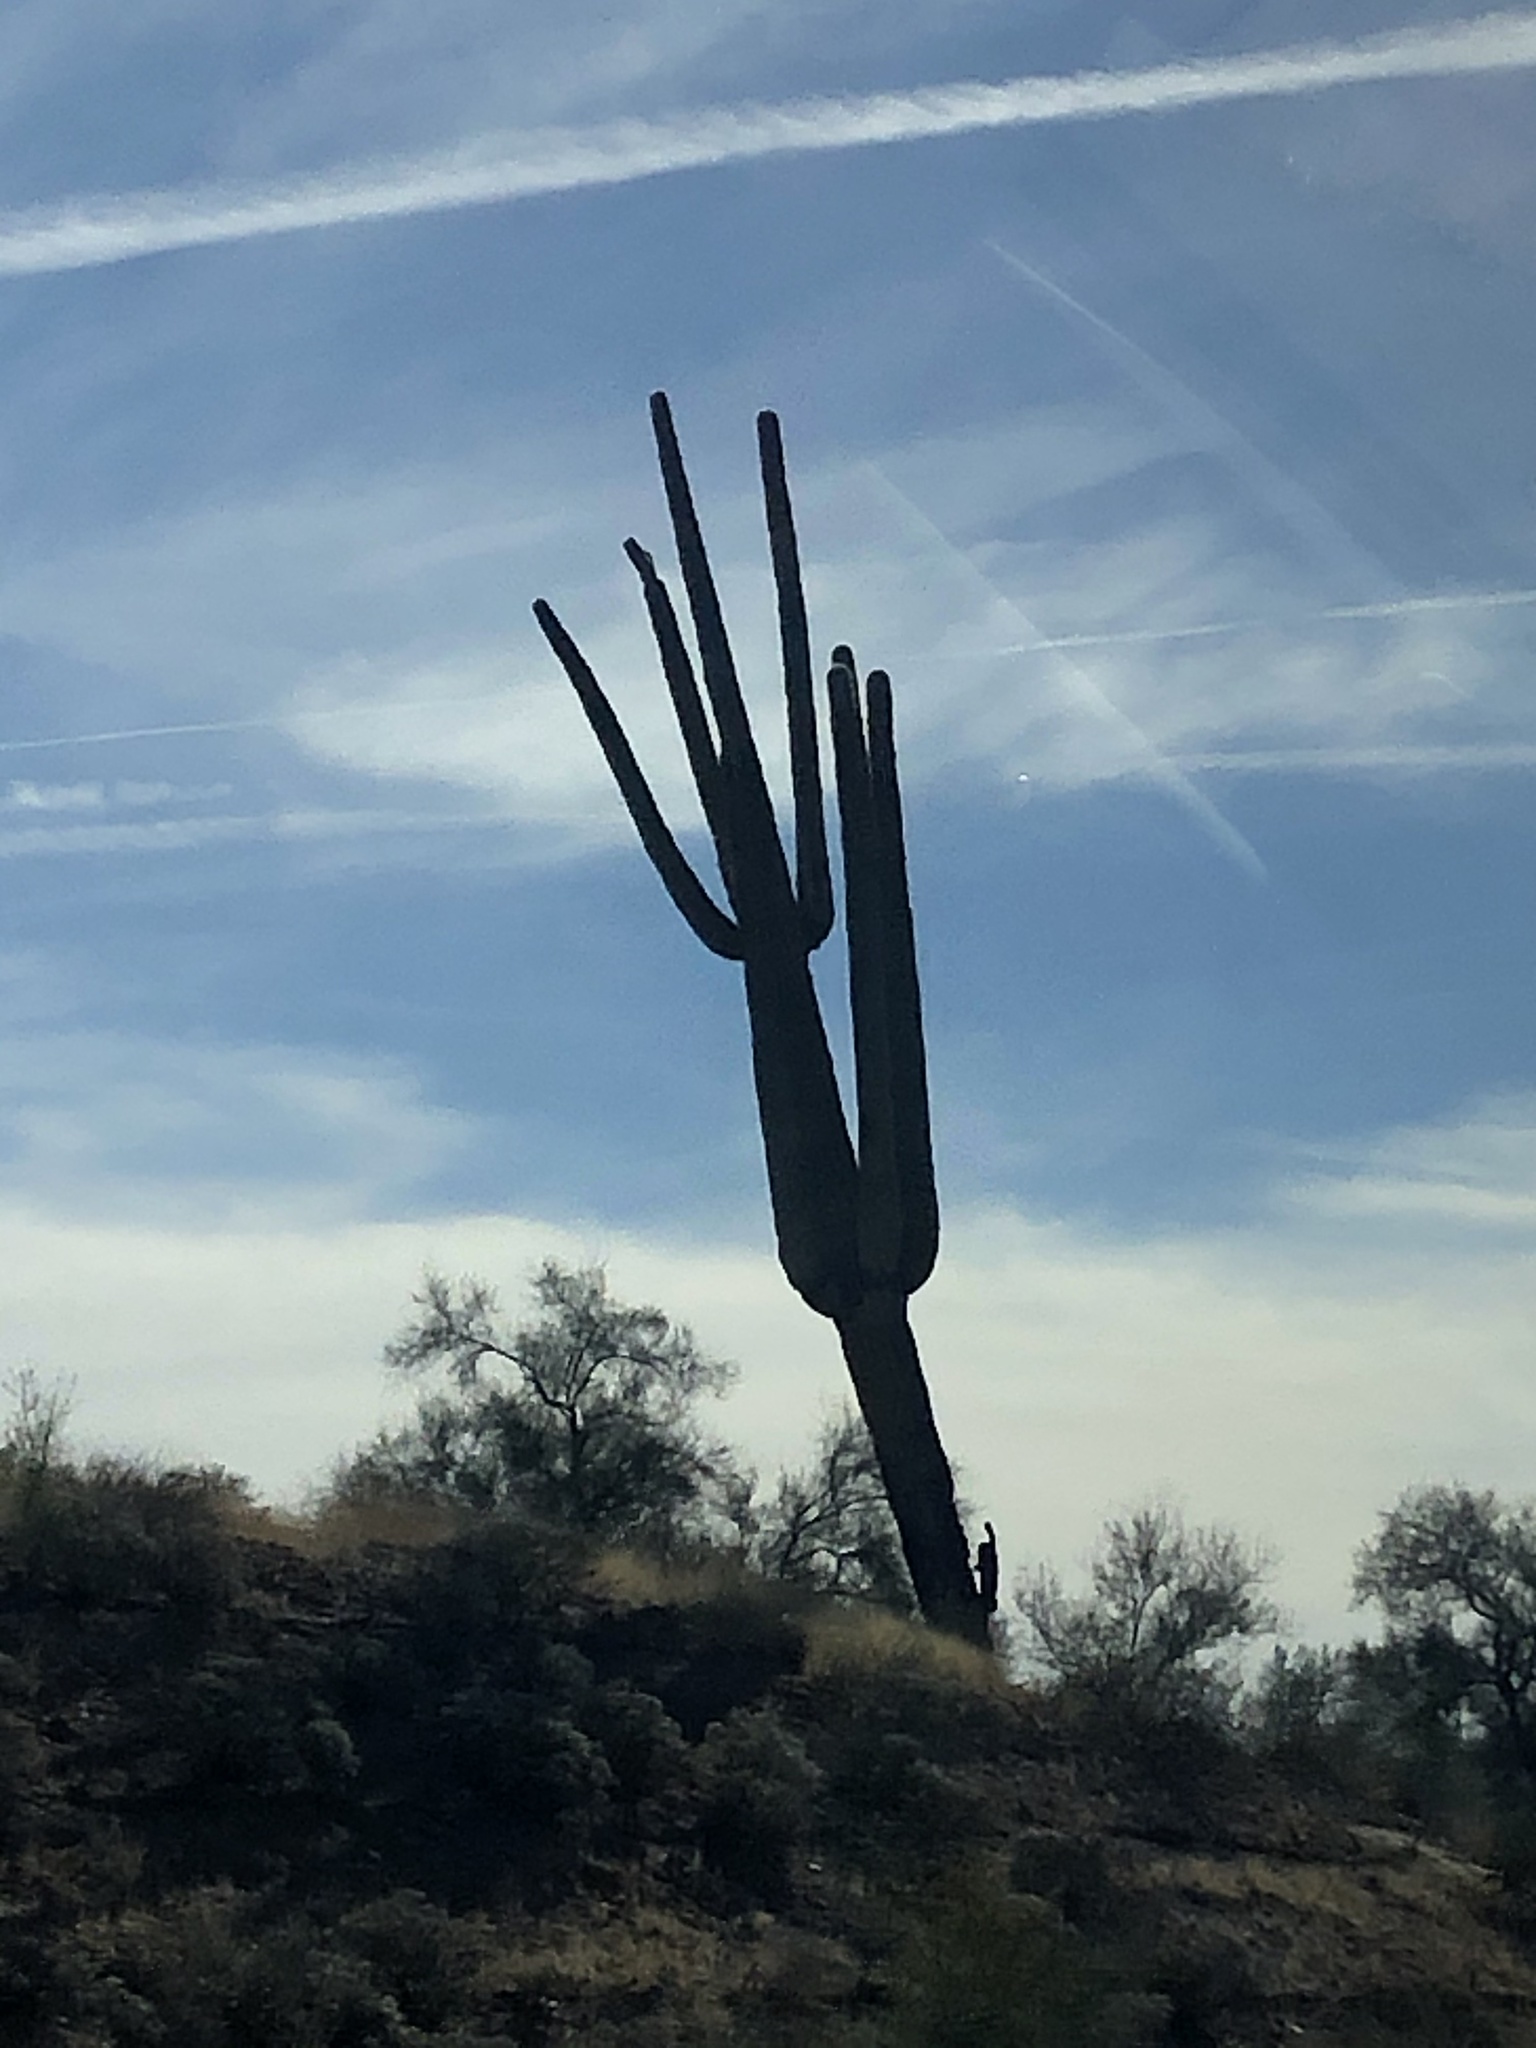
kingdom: Plantae
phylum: Tracheophyta
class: Magnoliopsida
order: Caryophyllales
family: Cactaceae
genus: Carnegiea
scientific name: Carnegiea gigantea
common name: Saguaro
